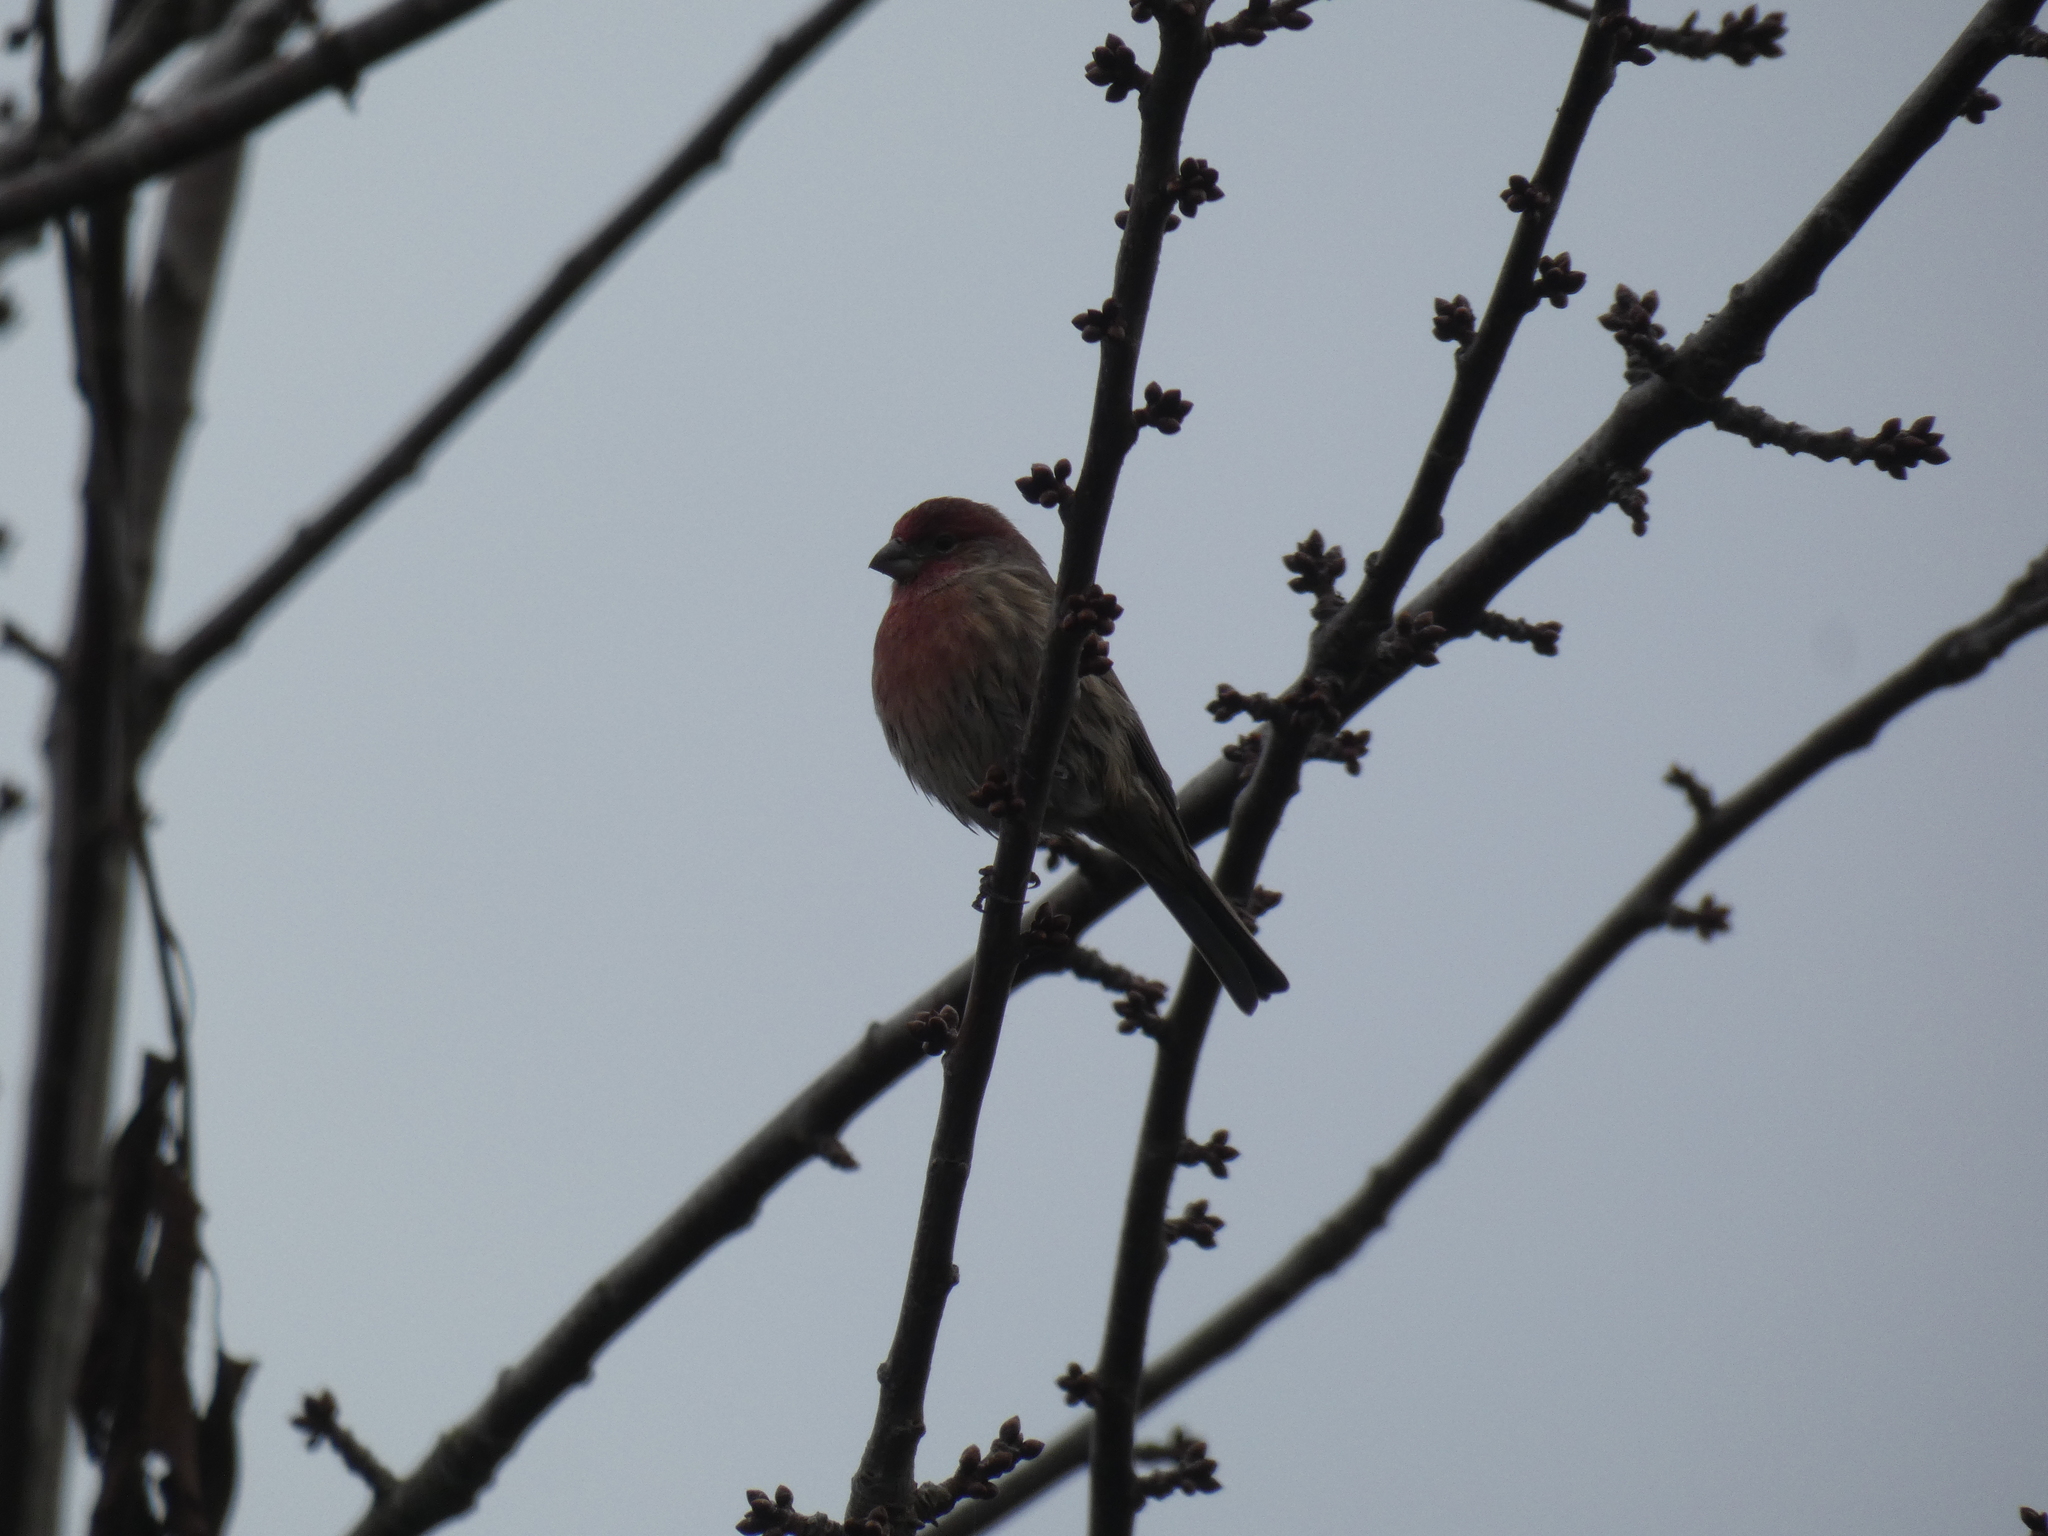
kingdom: Animalia
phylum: Chordata
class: Aves
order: Passeriformes
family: Fringillidae
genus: Haemorhous
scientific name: Haemorhous mexicanus
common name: House finch
